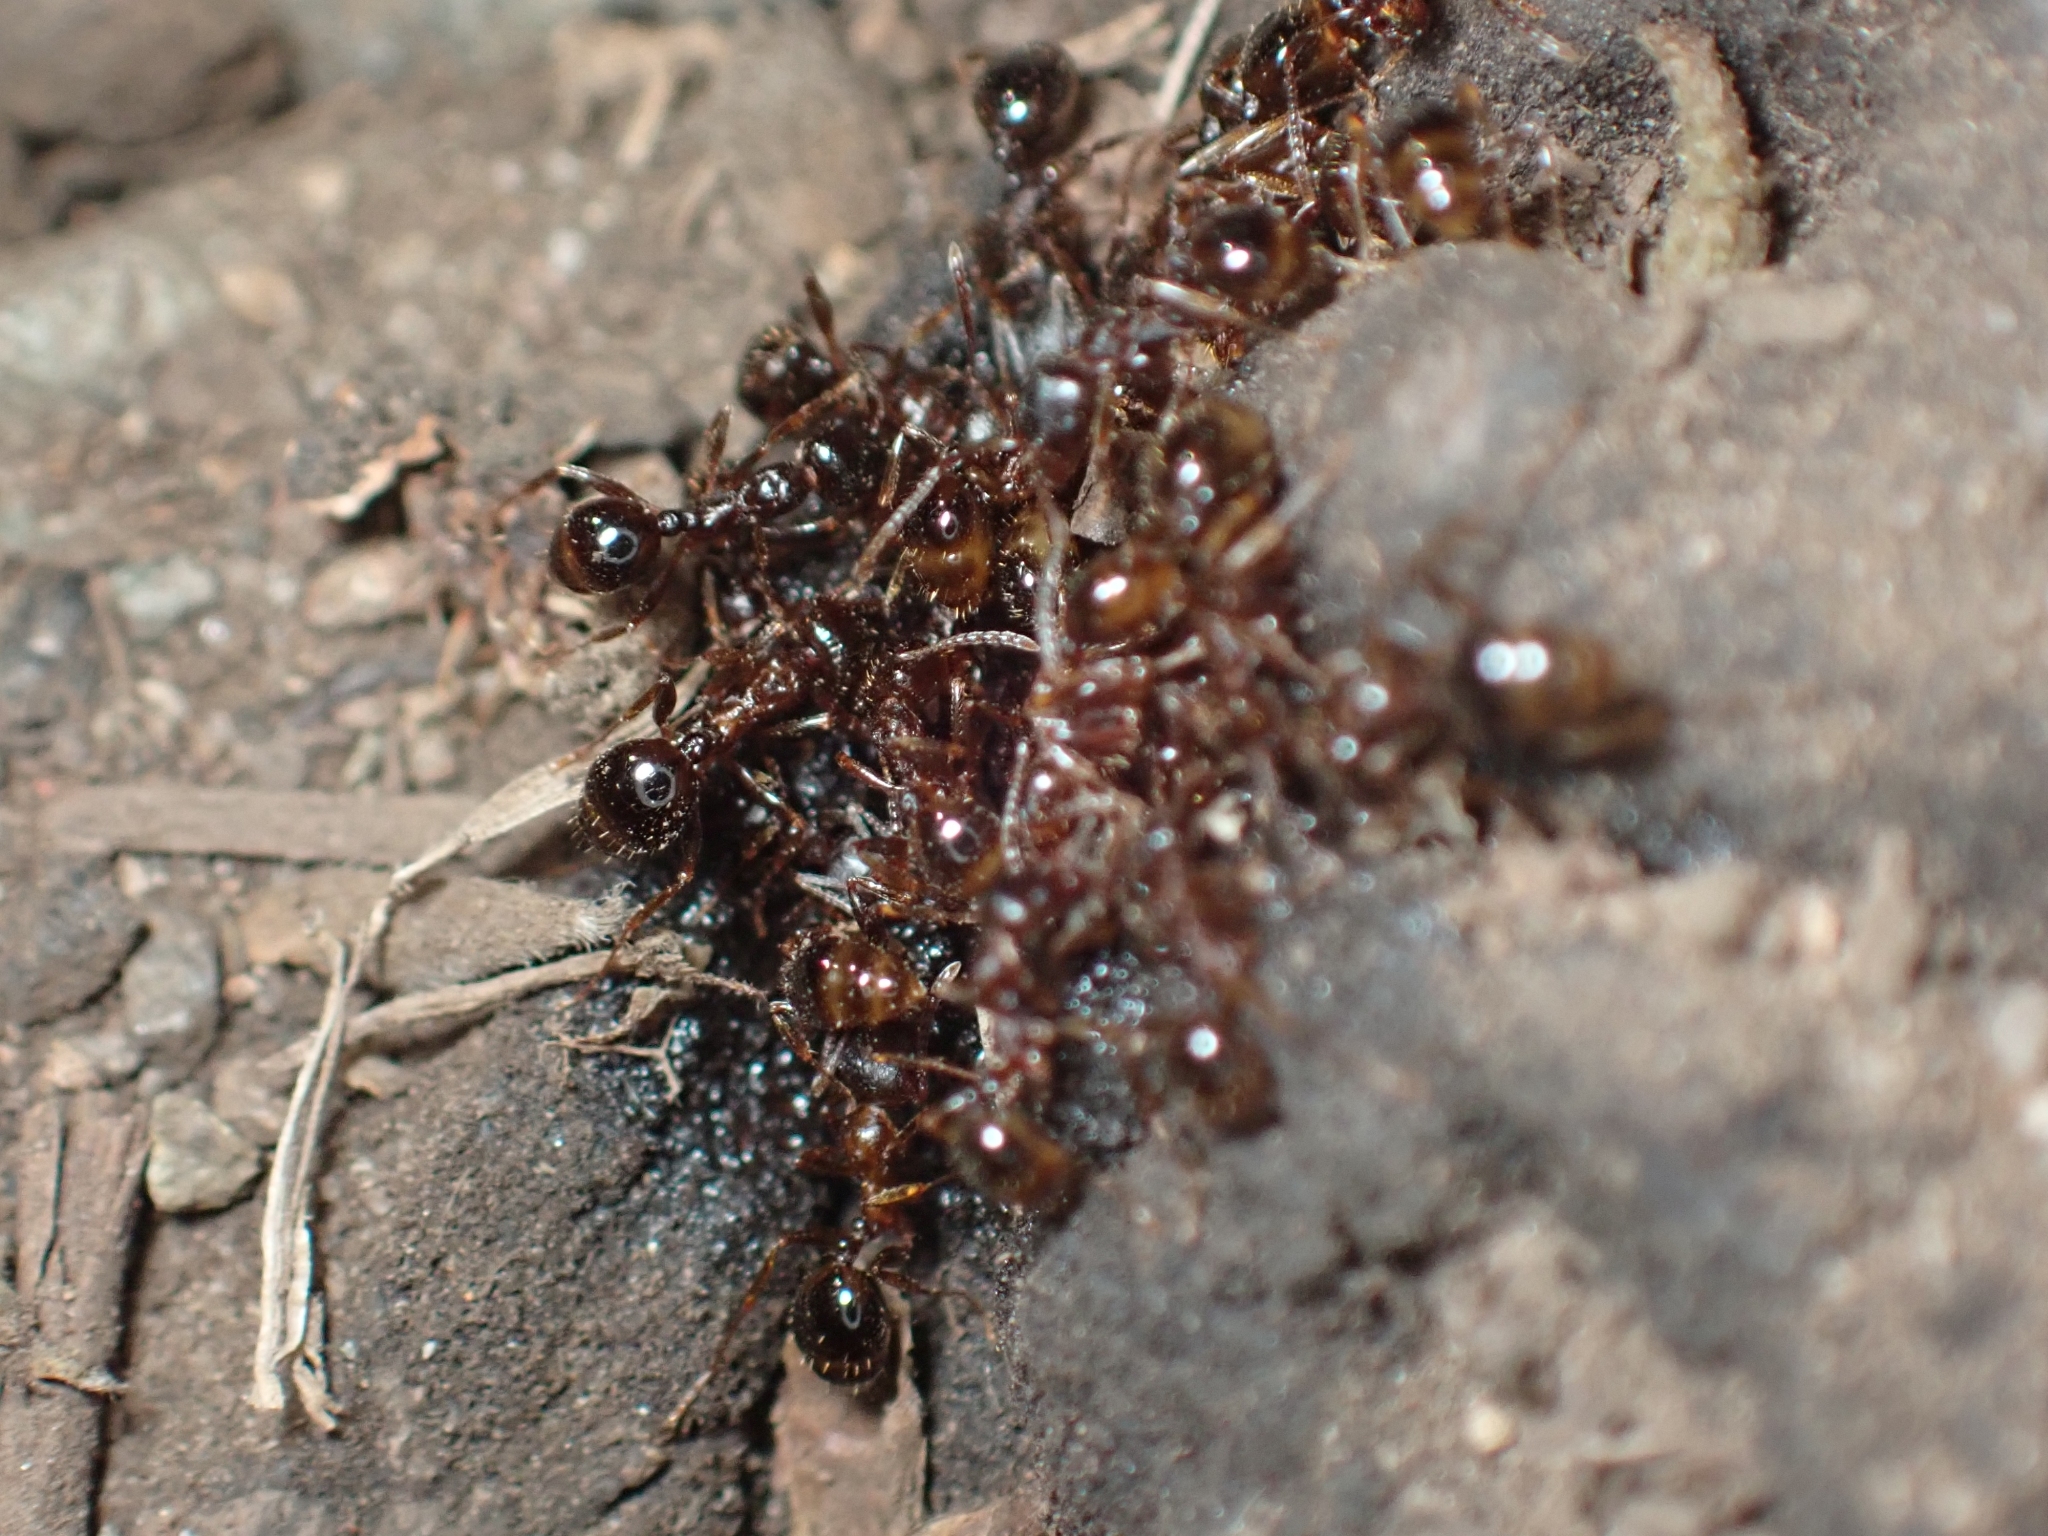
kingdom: Animalia
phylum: Arthropoda
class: Insecta
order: Hymenoptera
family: Formicidae
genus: Aphaenogaster
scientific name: Aphaenogaster occidentalis
